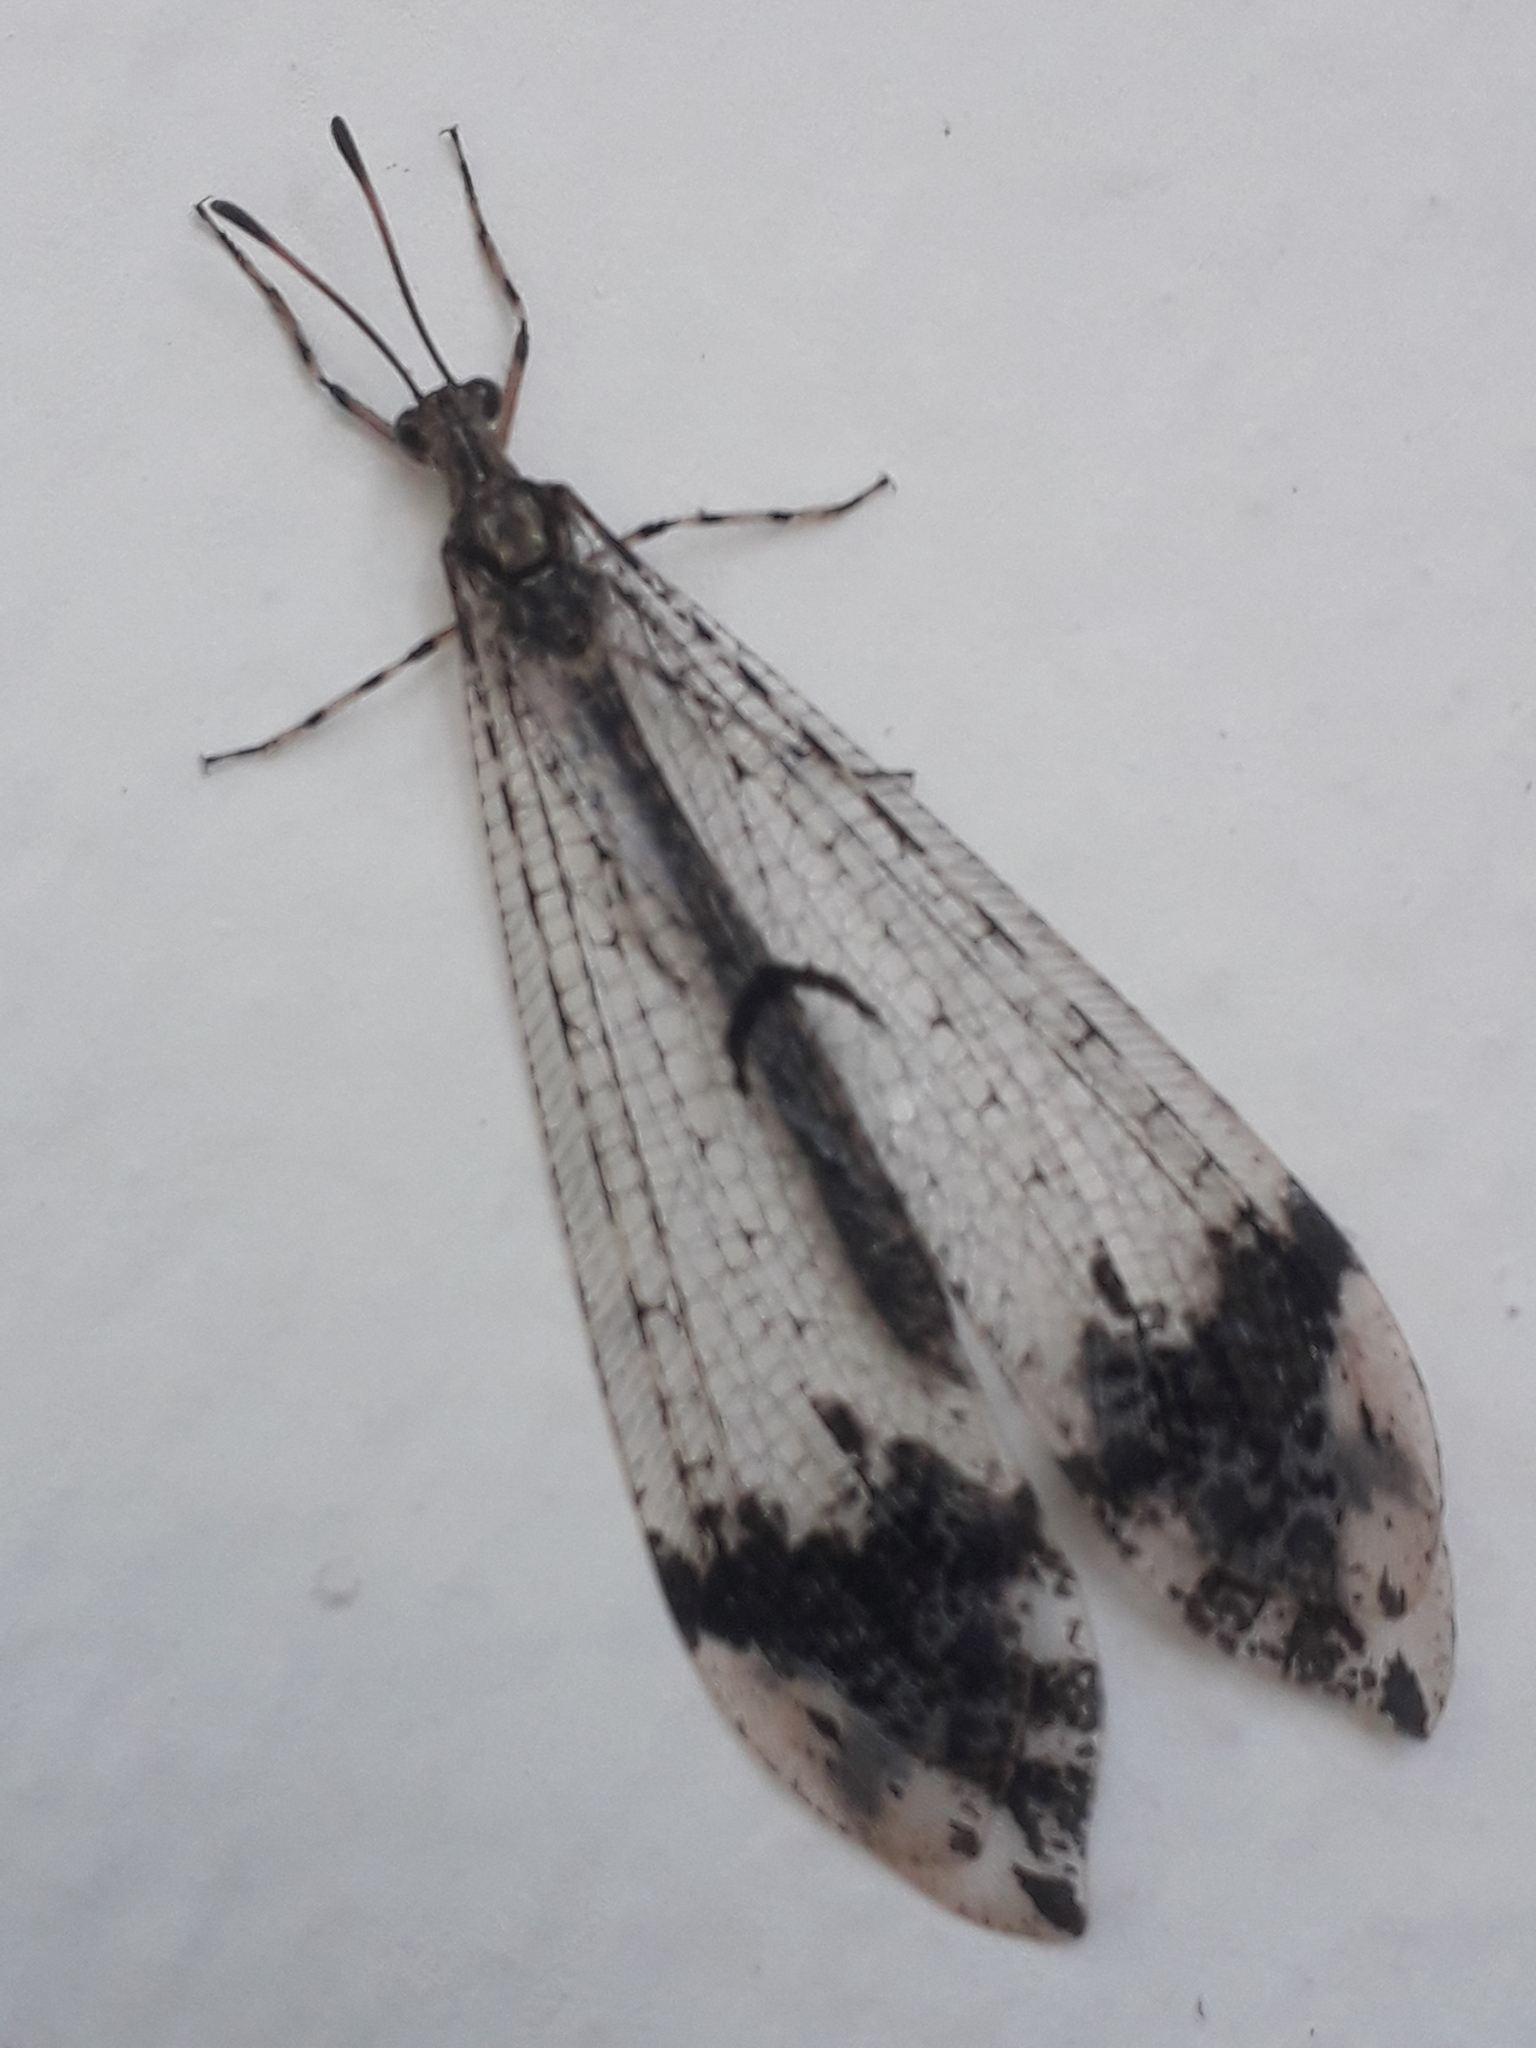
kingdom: Animalia
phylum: Arthropoda
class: Insecta
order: Neuroptera
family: Myrmeleontidae
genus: Glenurus
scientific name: Glenurus proi
